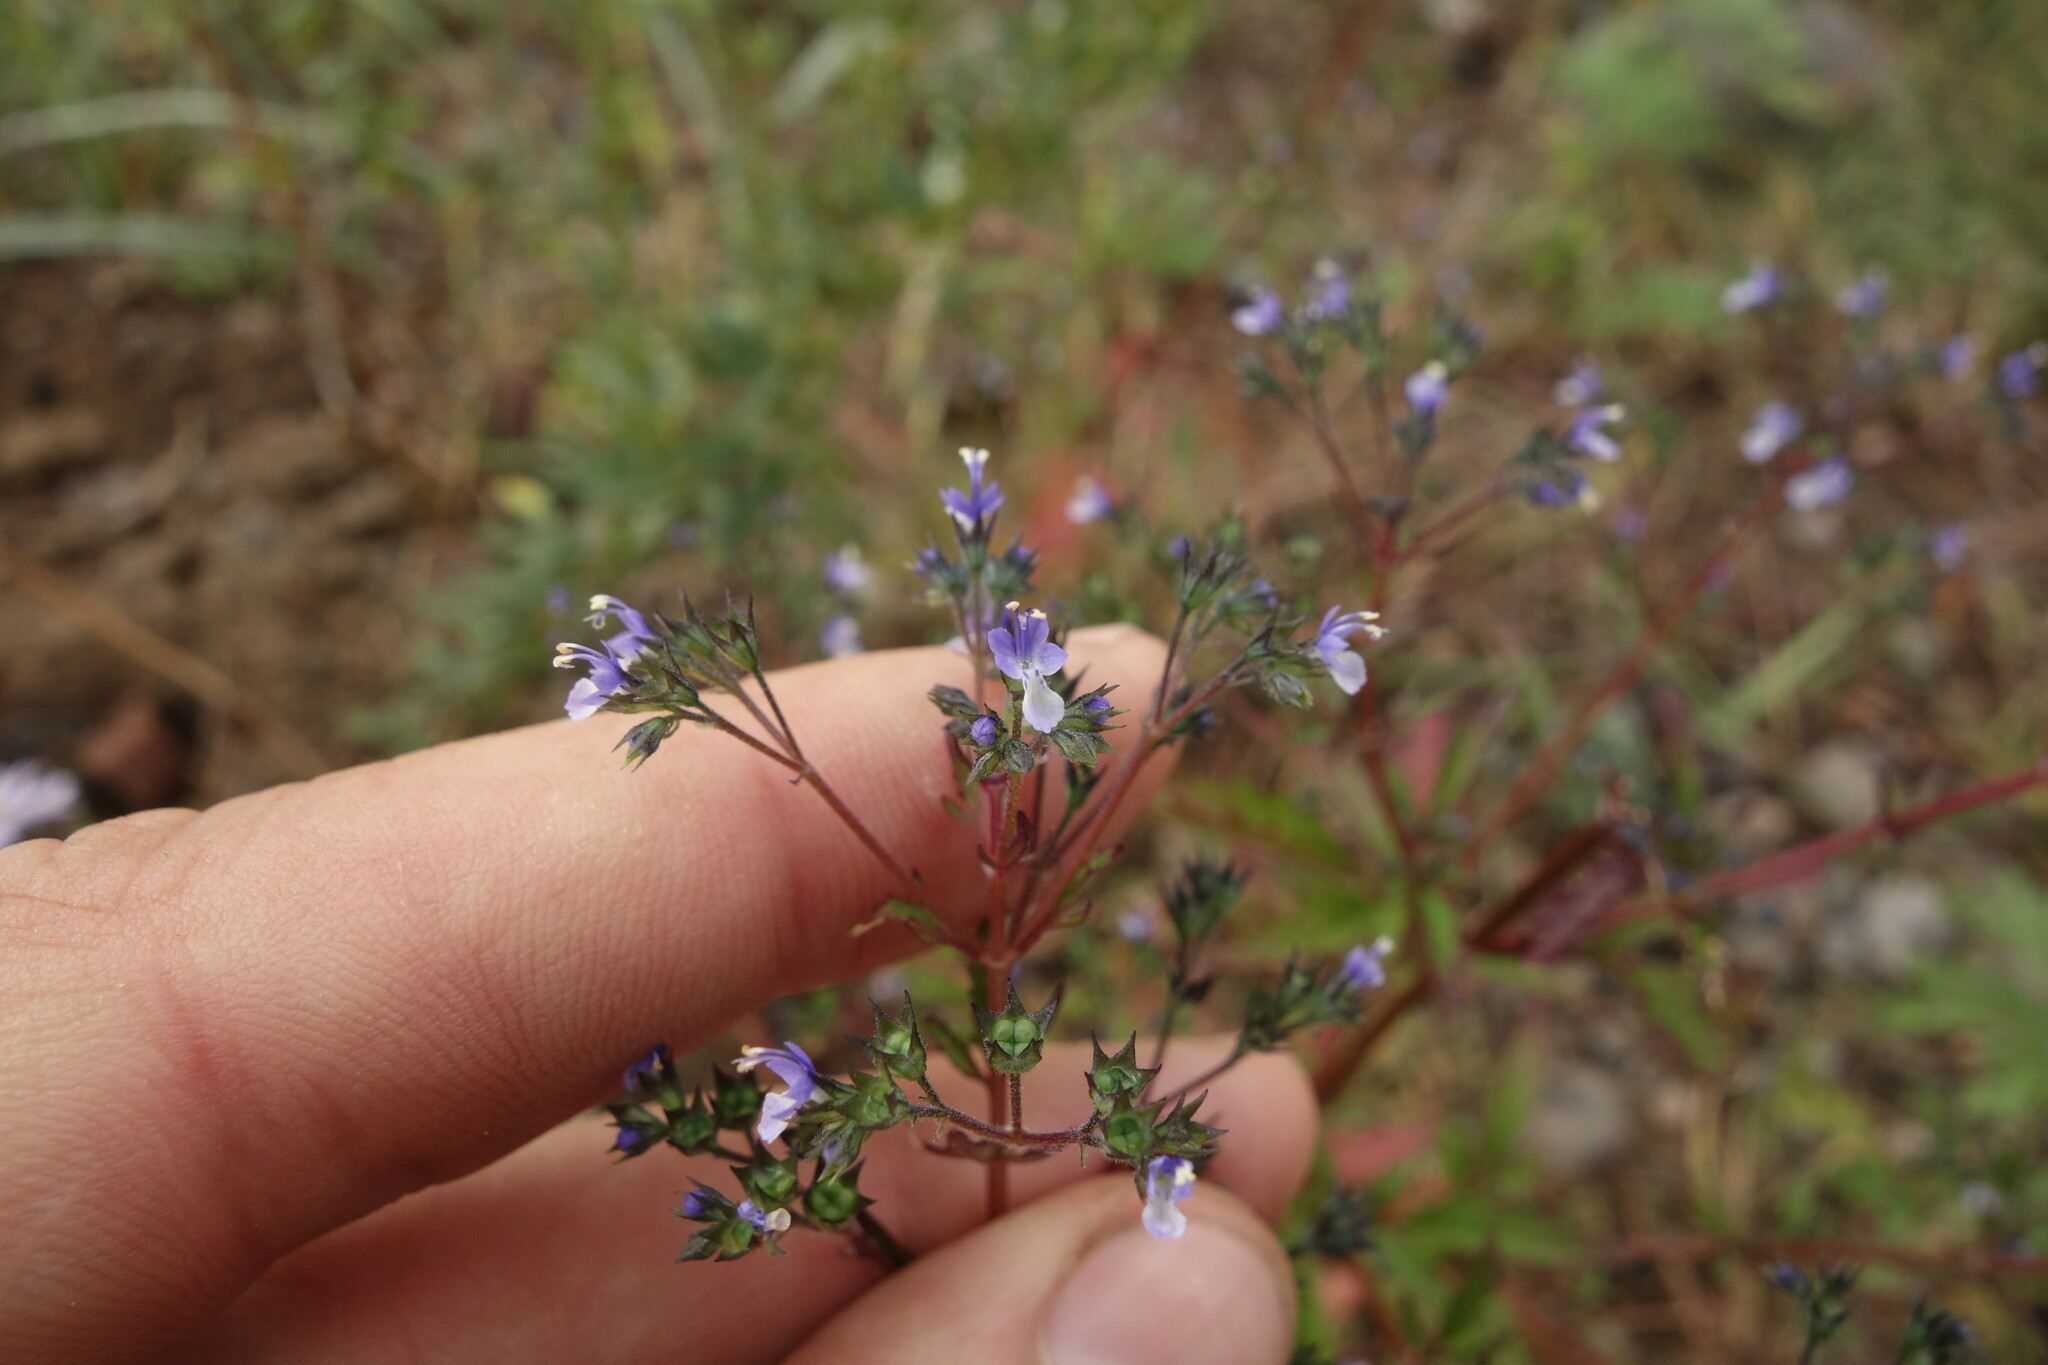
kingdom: Plantae
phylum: Tracheophyta
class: Magnoliopsida
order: Lamiales
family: Lamiaceae
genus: Amethystea
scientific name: Amethystea caerulea
